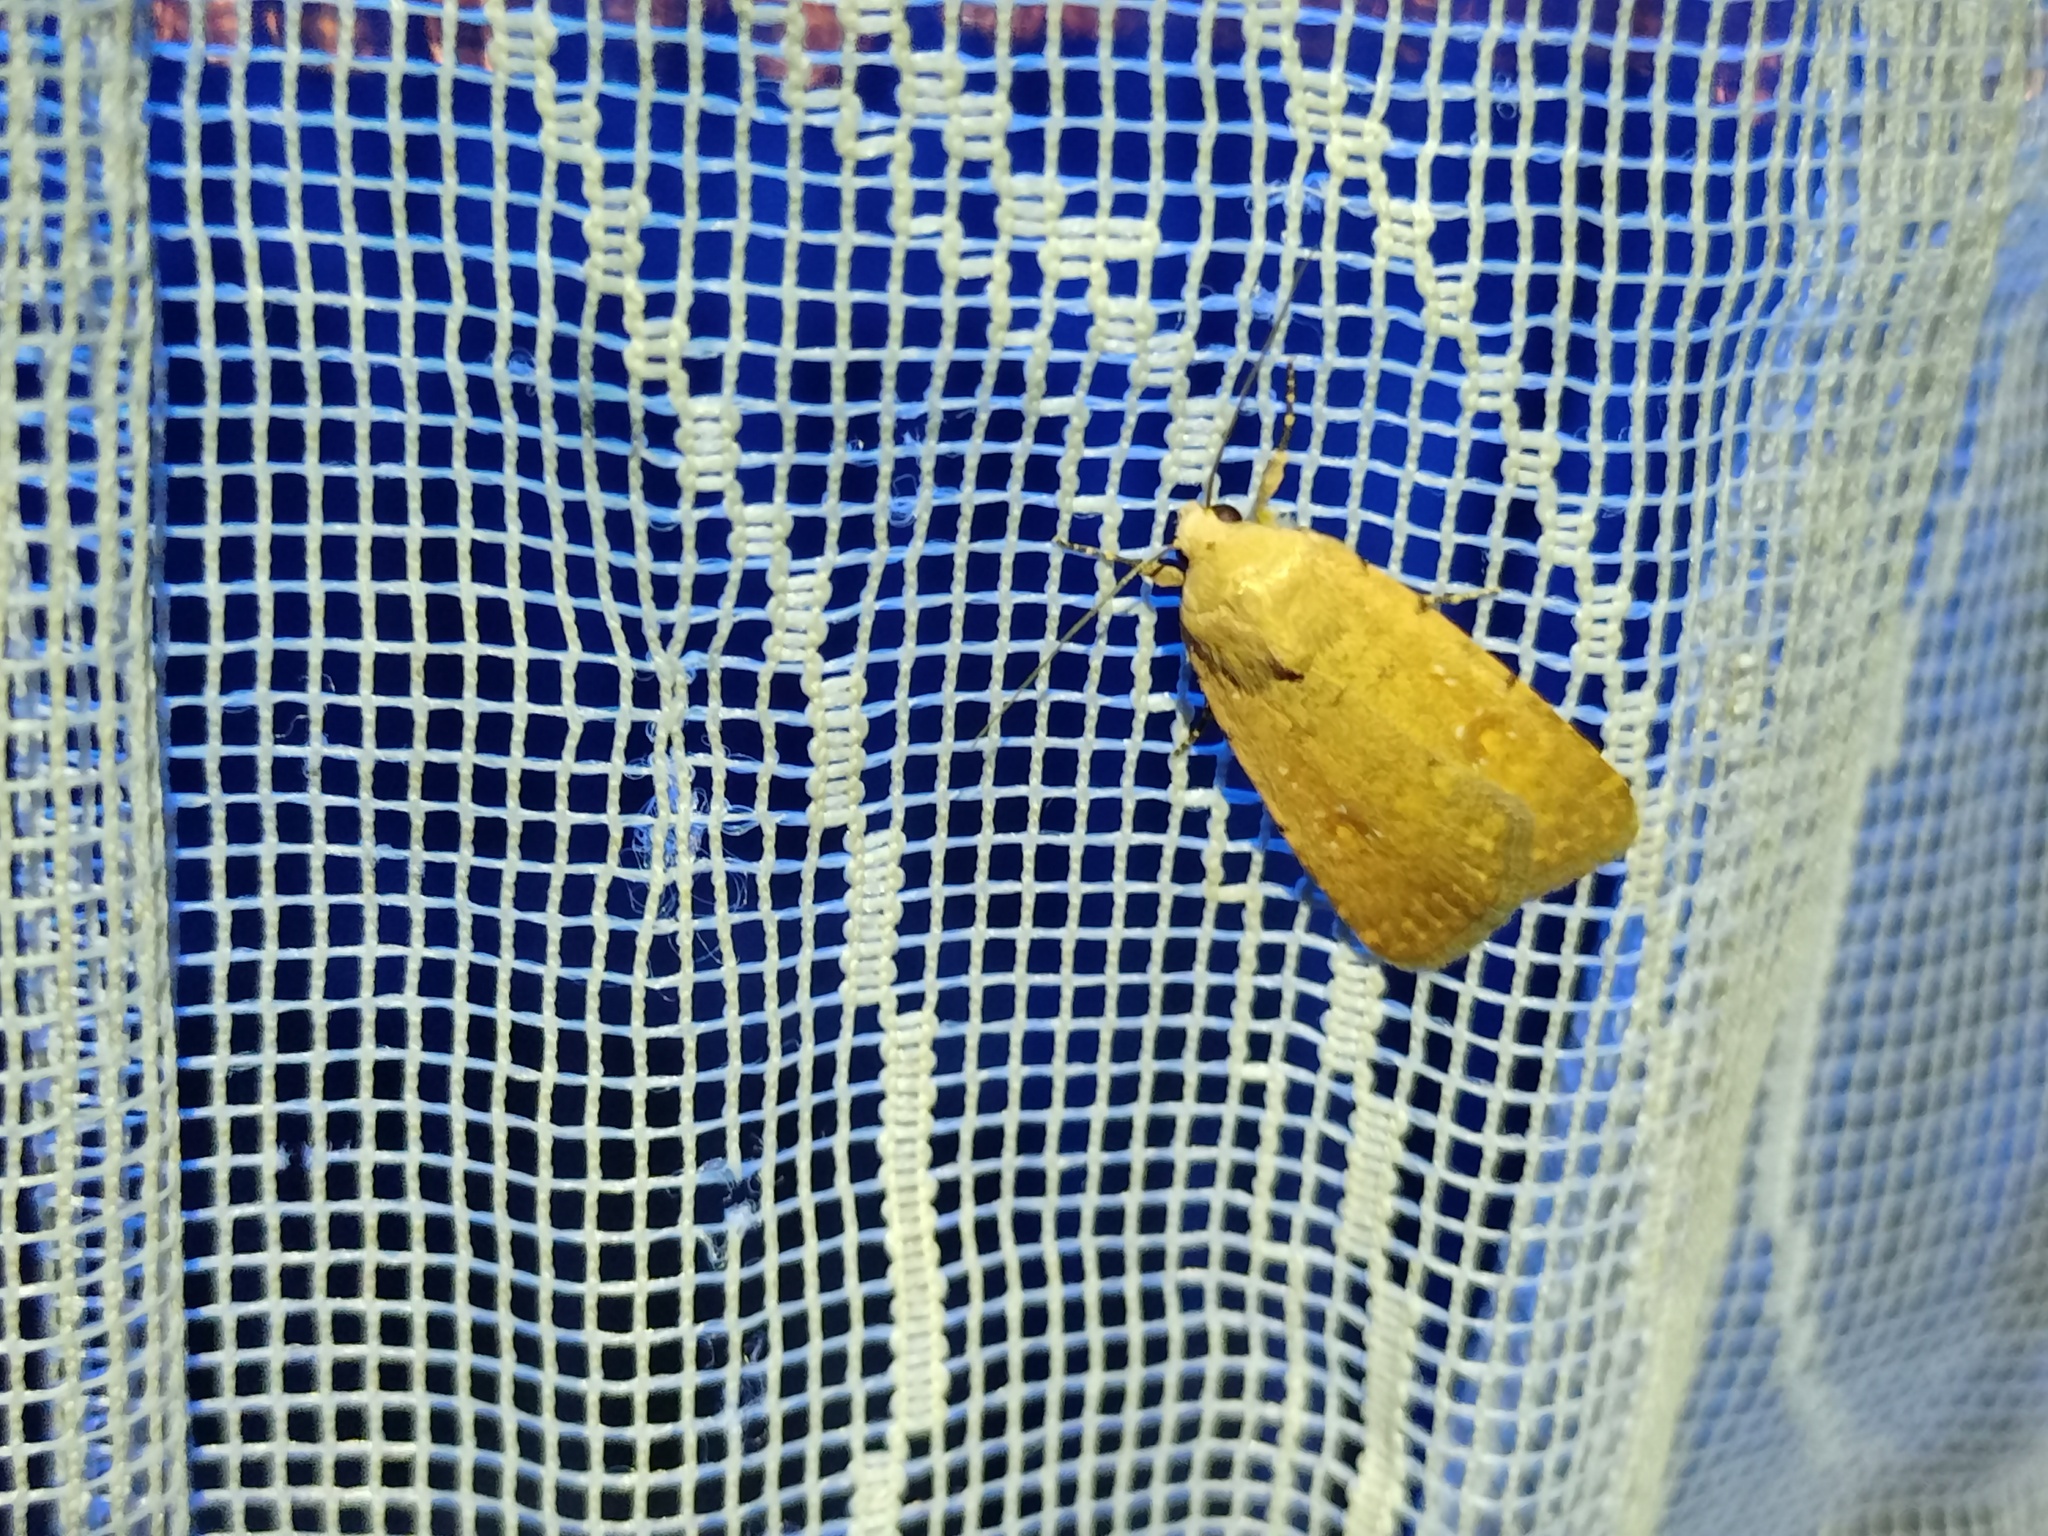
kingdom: Animalia
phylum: Arthropoda
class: Insecta
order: Lepidoptera
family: Noctuidae
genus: Caradrina
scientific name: Caradrina flava
